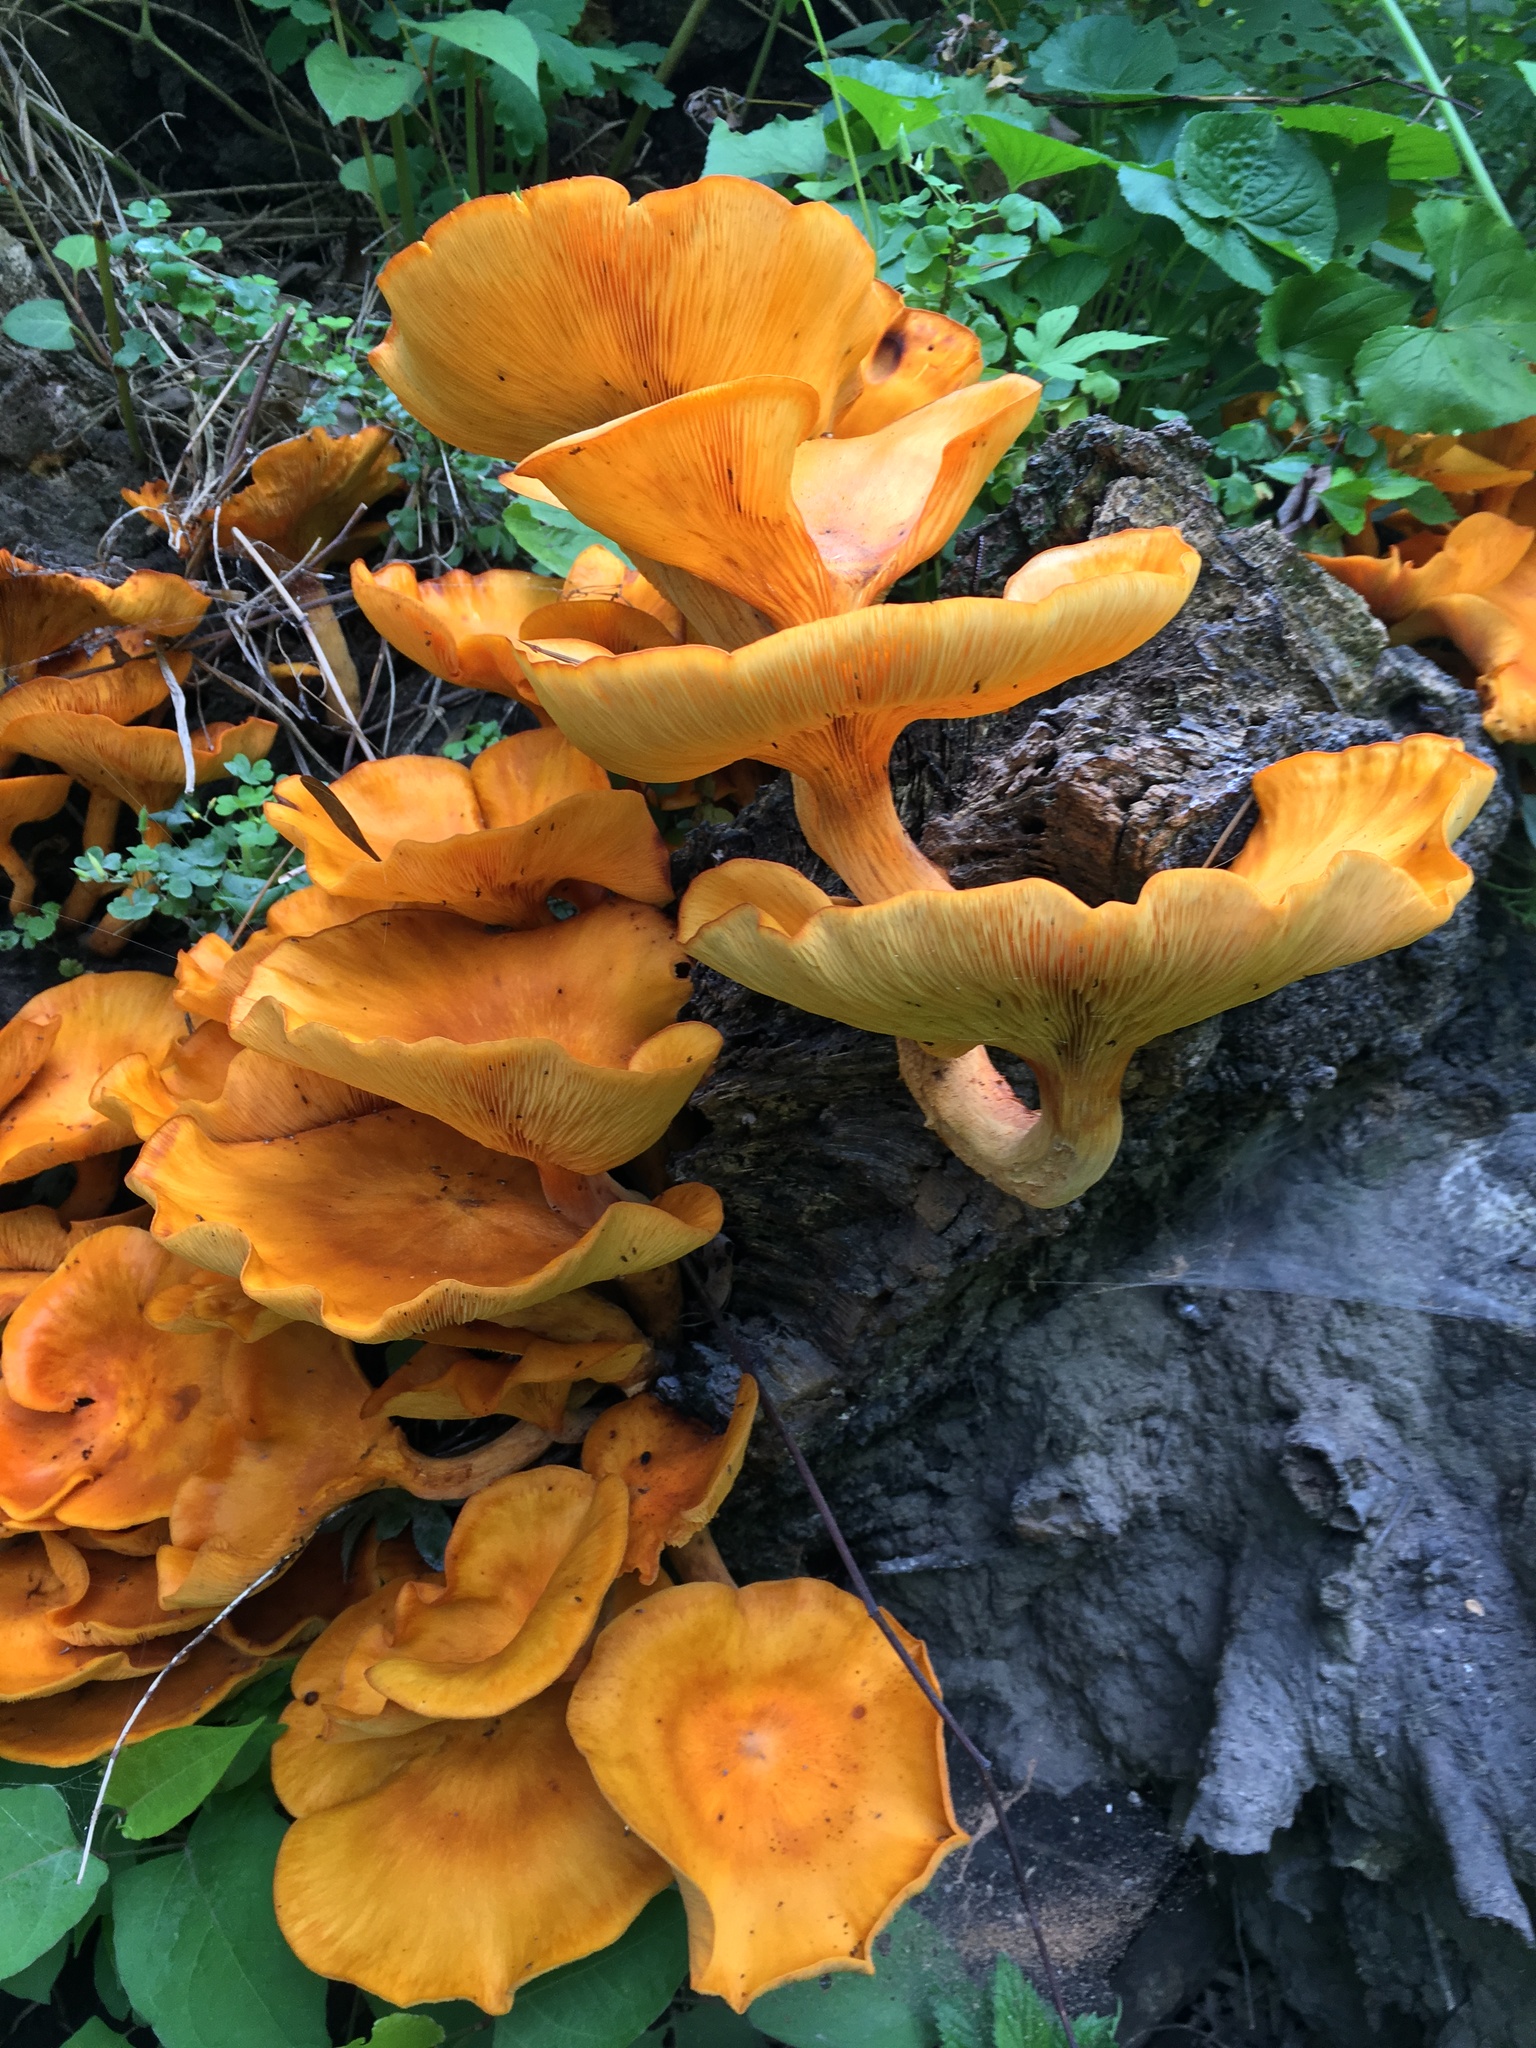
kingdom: Fungi
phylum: Basidiomycota
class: Agaricomycetes
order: Agaricales
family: Omphalotaceae
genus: Omphalotus
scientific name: Omphalotus illudens
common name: Jack o lantern
